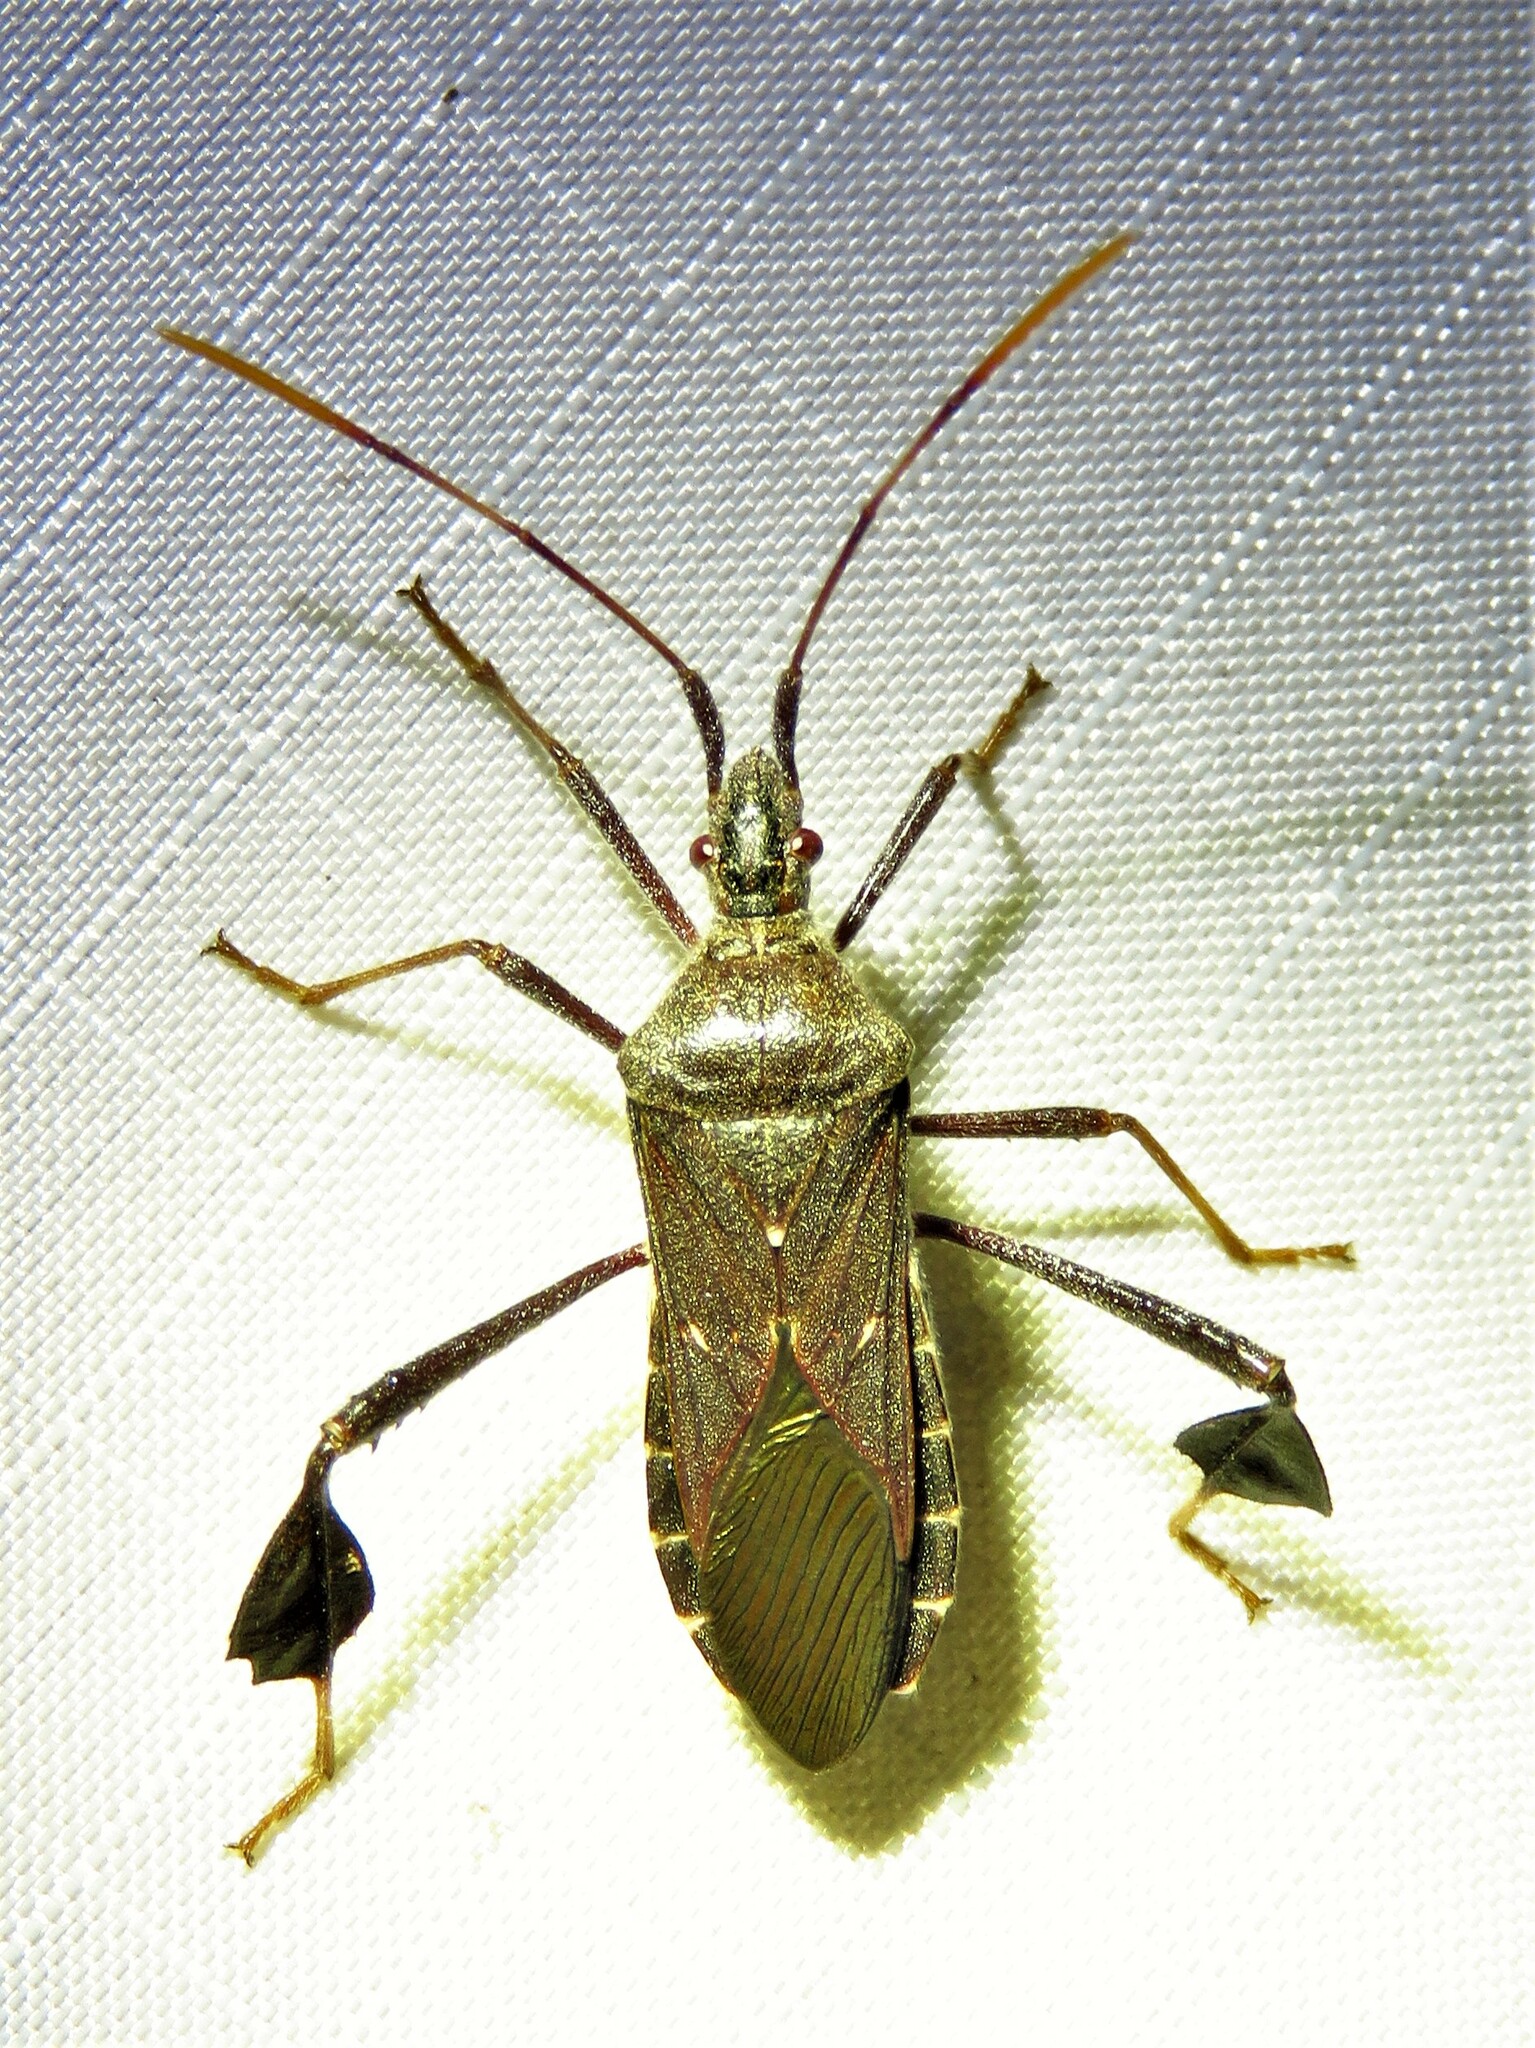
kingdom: Animalia
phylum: Arthropoda
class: Insecta
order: Hemiptera
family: Coreidae
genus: Leptoglossus
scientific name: Leptoglossus oppositus
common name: Northern leaf-footed bug
